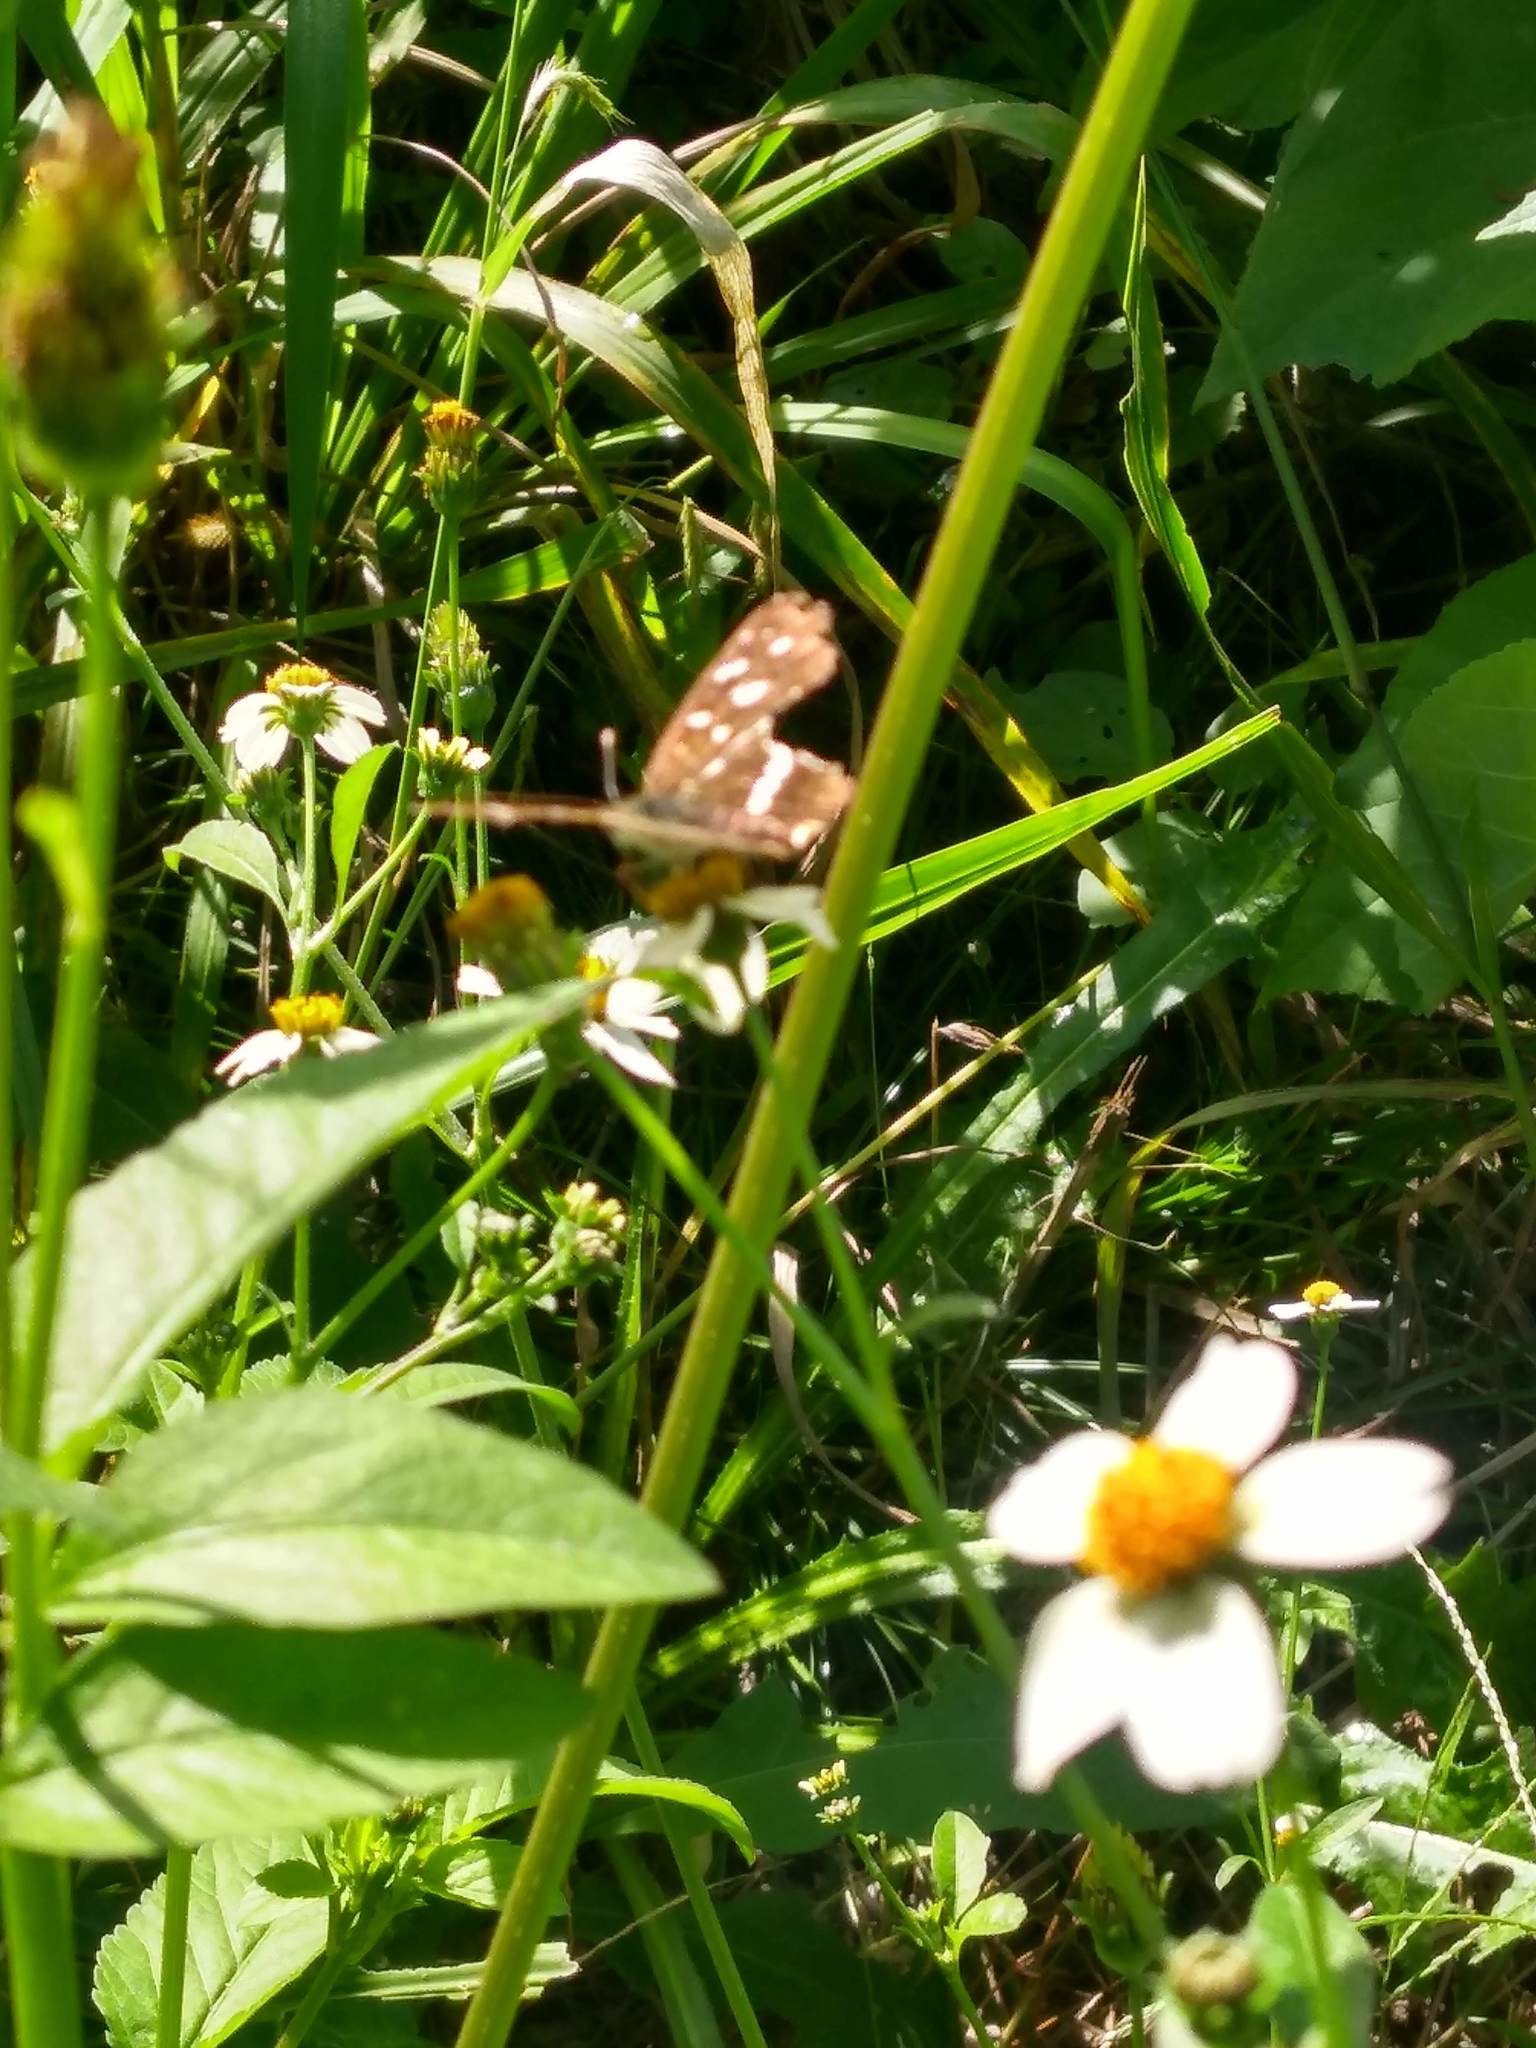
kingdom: Animalia
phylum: Arthropoda
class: Insecta
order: Lepidoptera
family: Nymphalidae
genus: Ortilia
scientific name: Ortilia ithra
